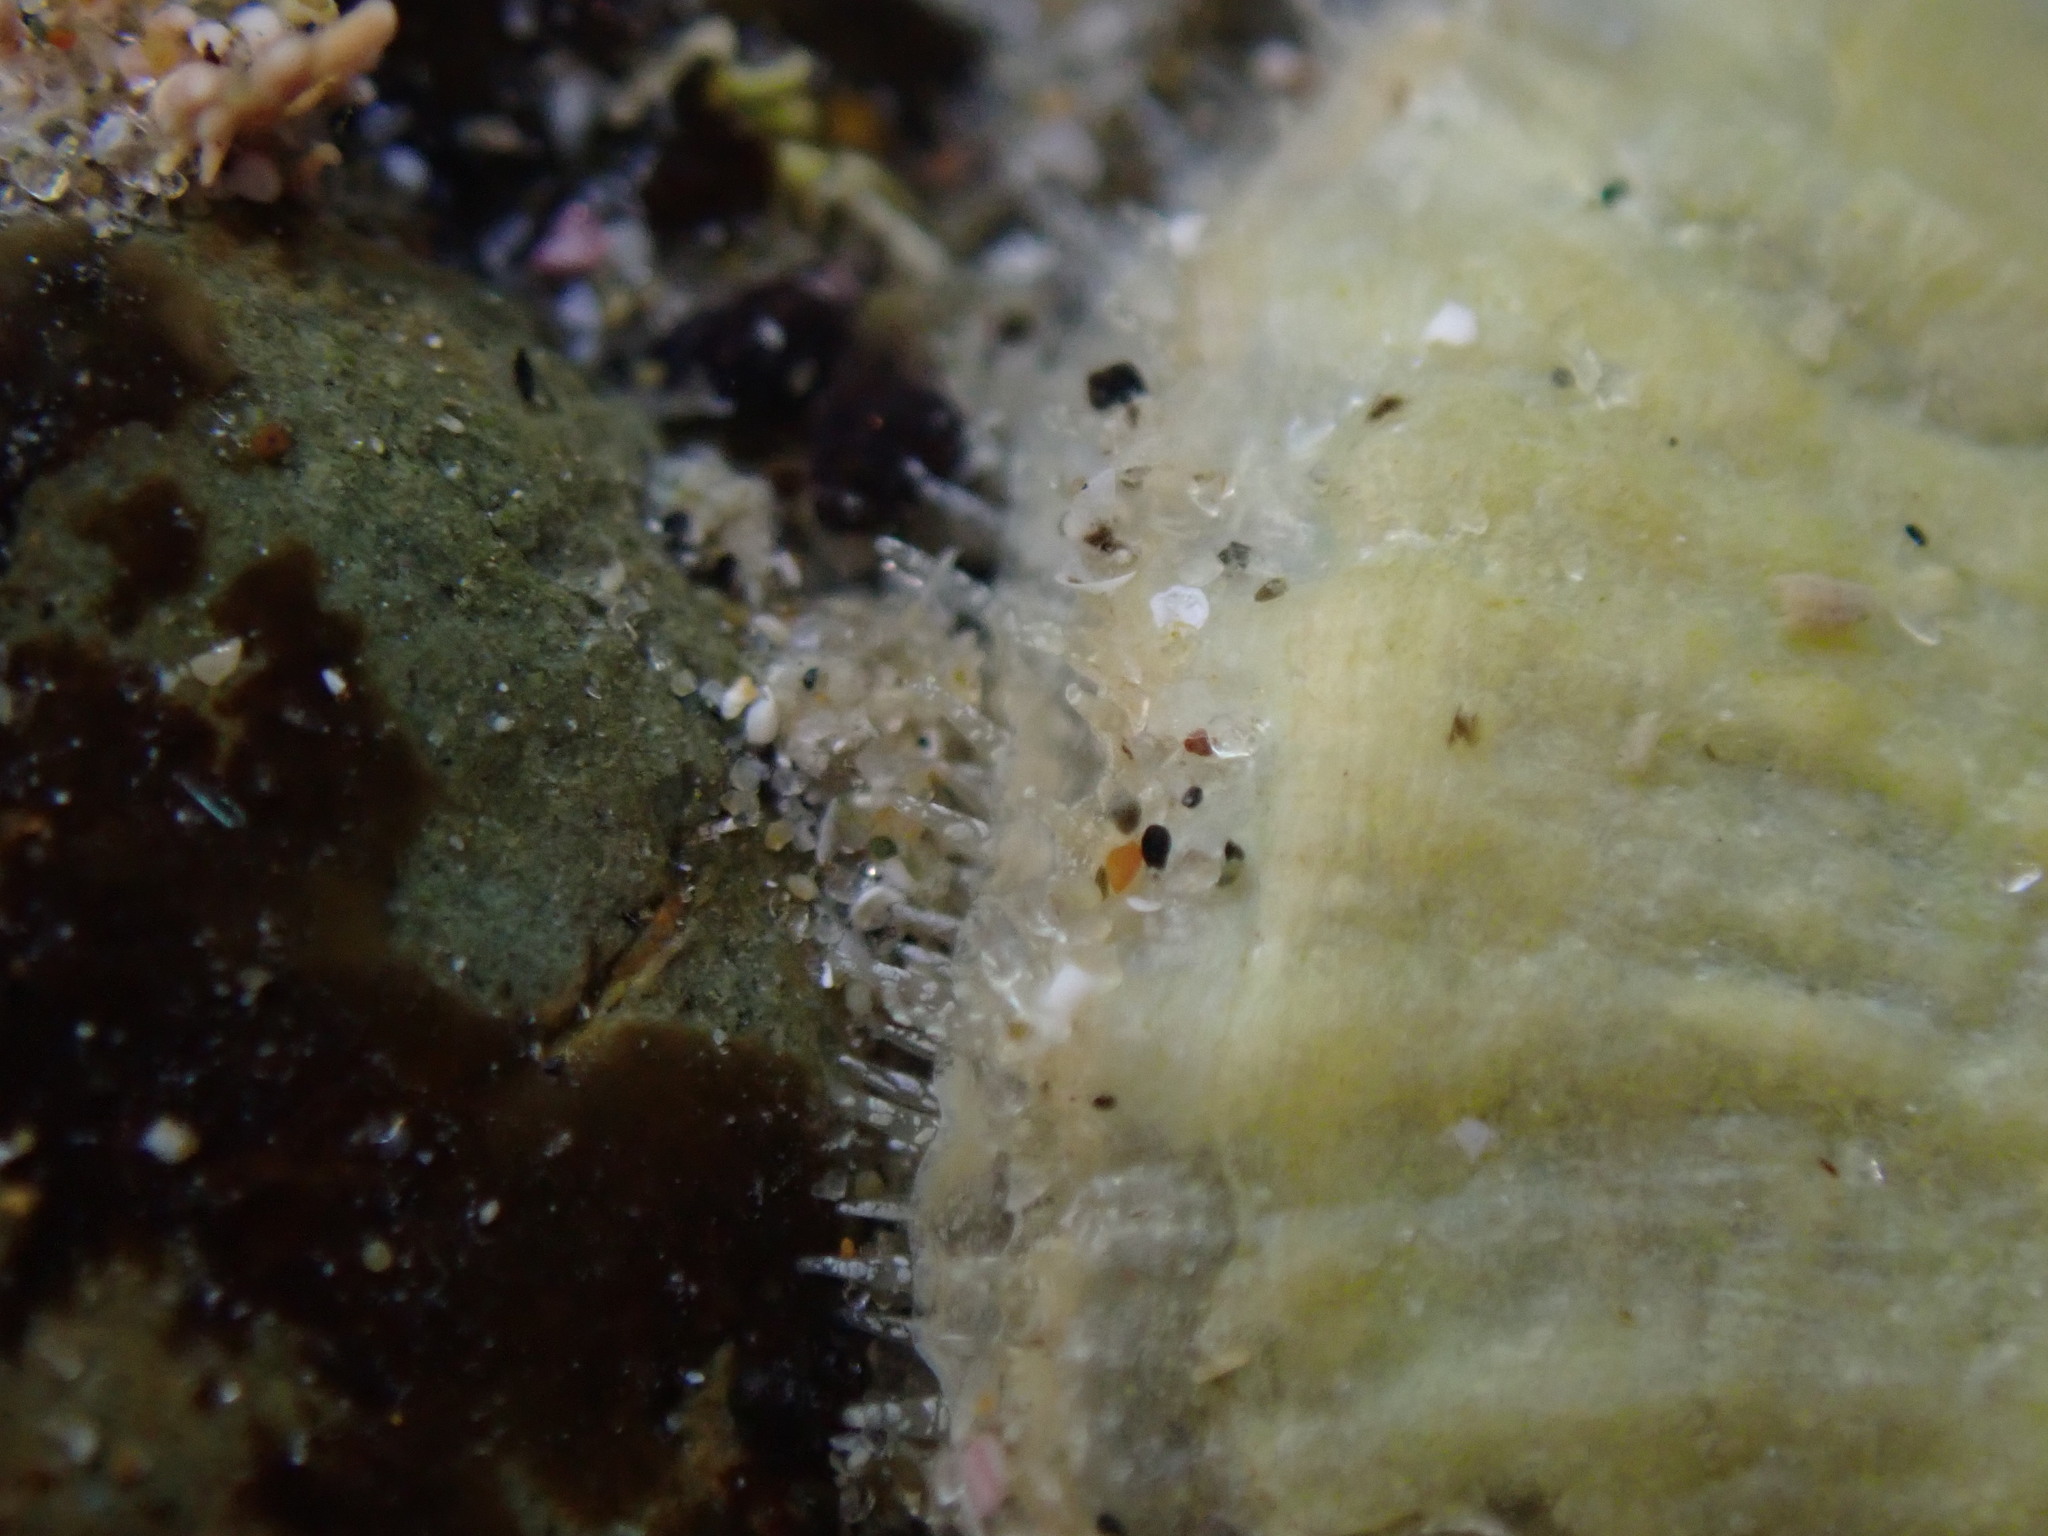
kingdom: Animalia
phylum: Mollusca
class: Bivalvia
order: Pectinida
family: Anomiidae
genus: Anomia
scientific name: Anomia trigonopsis
